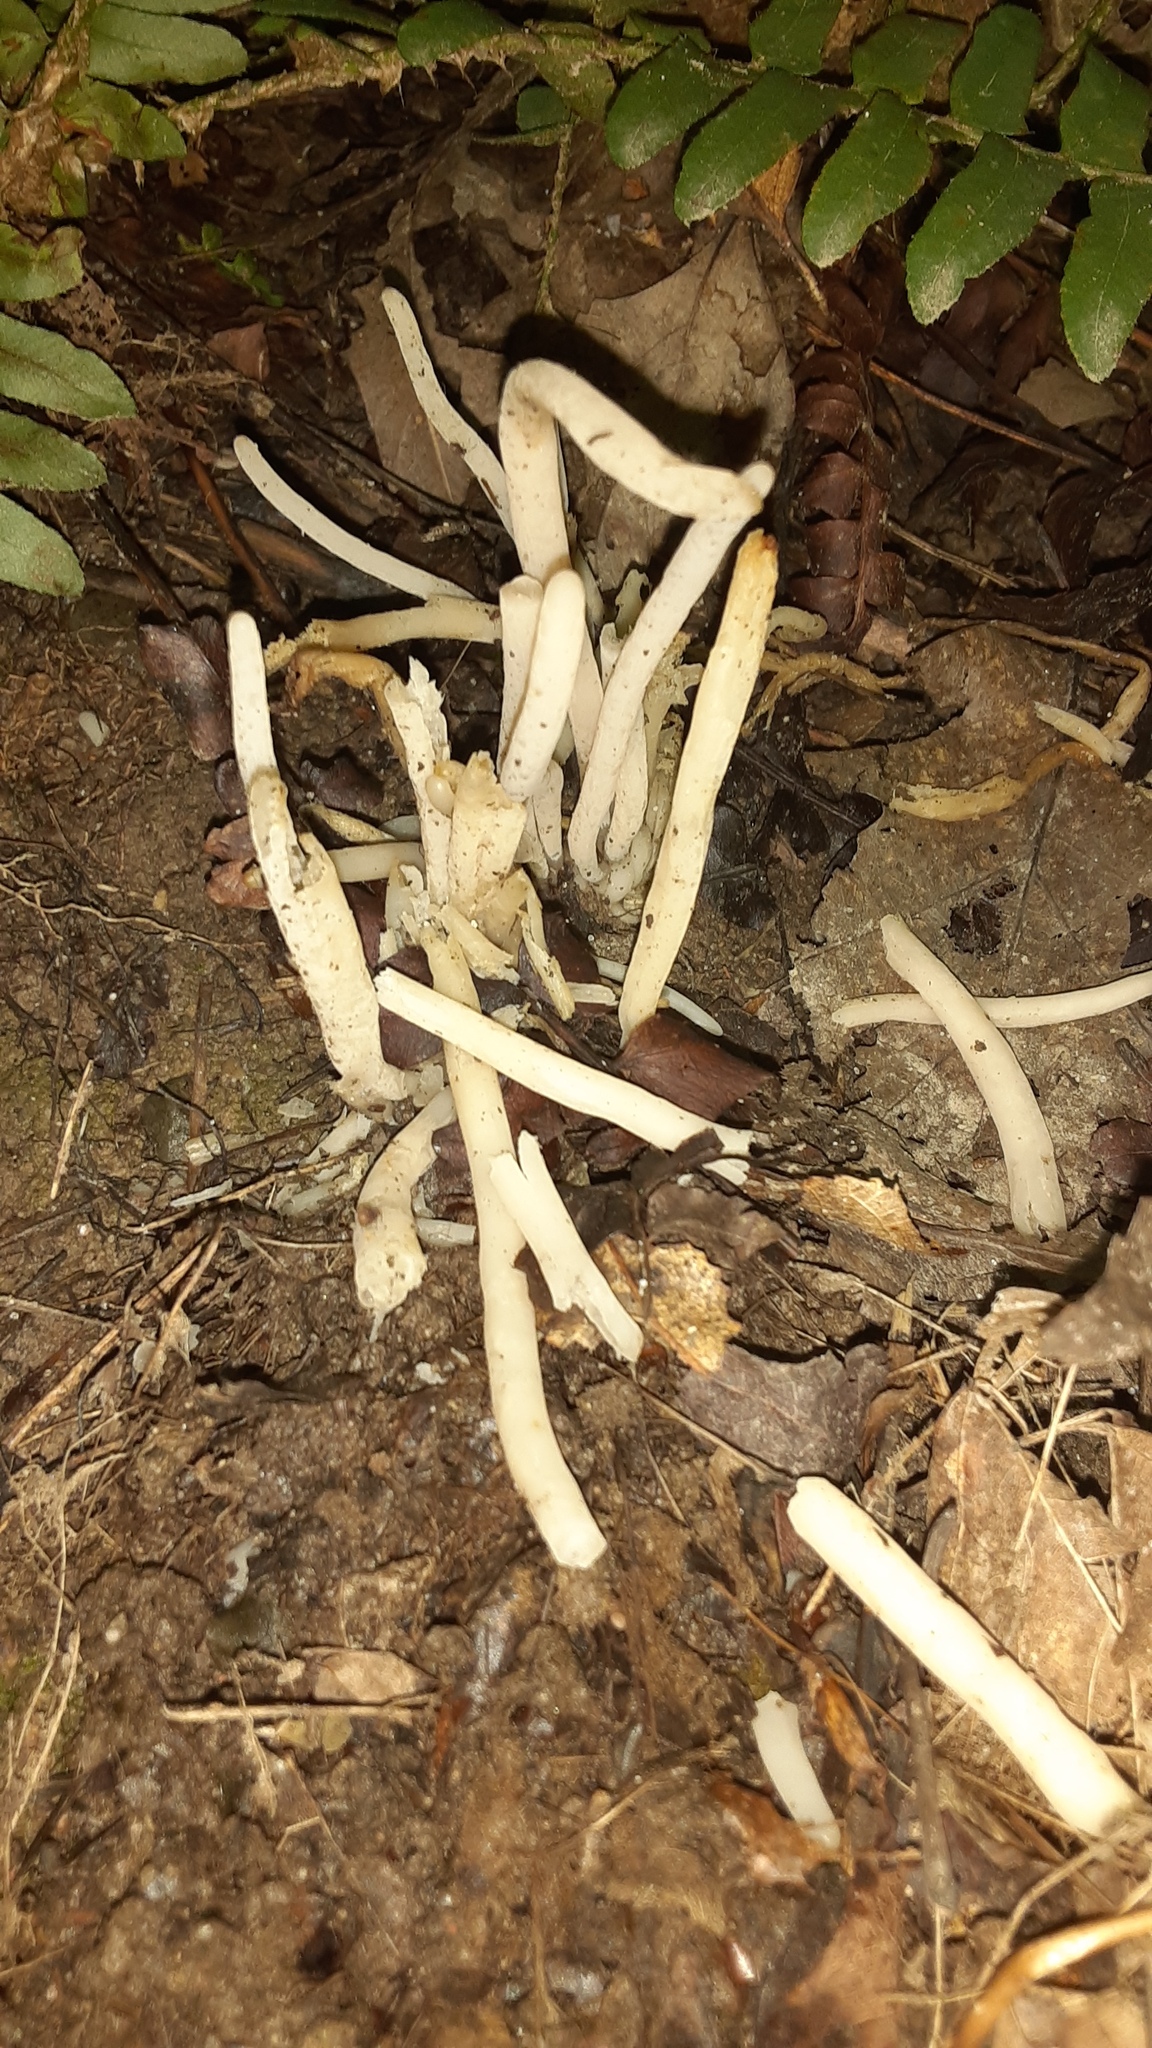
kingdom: Fungi
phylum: Basidiomycota
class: Agaricomycetes
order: Agaricales
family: Clavariaceae
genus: Clavaria
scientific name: Clavaria fragilis
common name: White spindles
